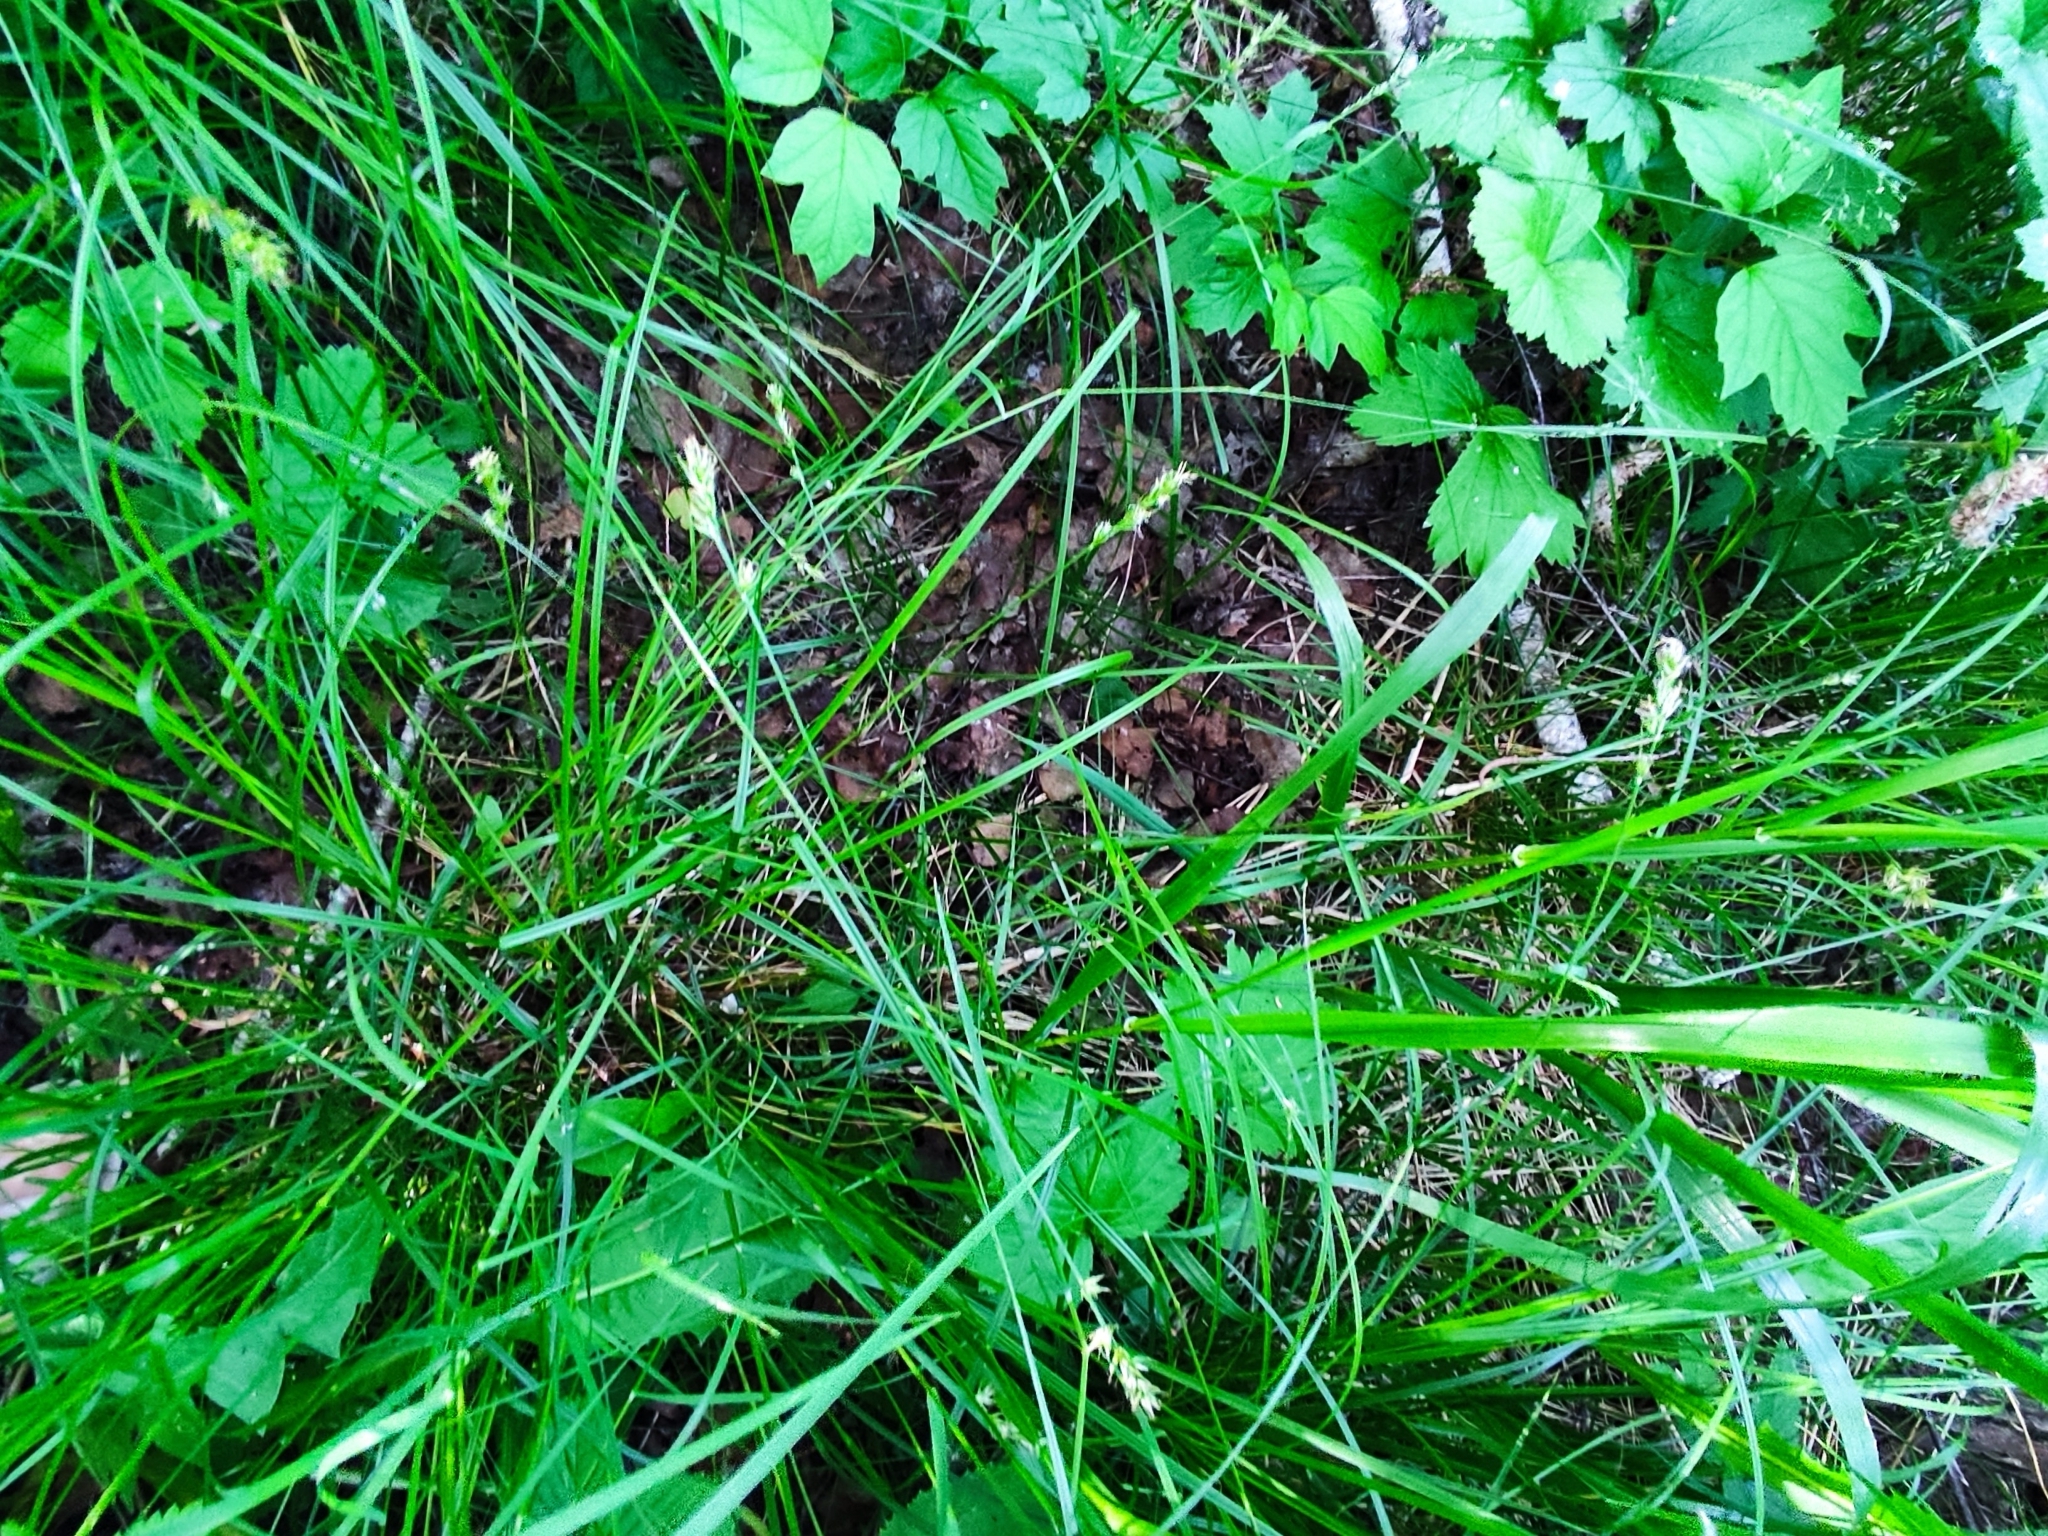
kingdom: Plantae
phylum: Tracheophyta
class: Liliopsida
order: Poales
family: Cyperaceae
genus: Carex
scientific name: Carex spicata
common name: Spiked sedge
